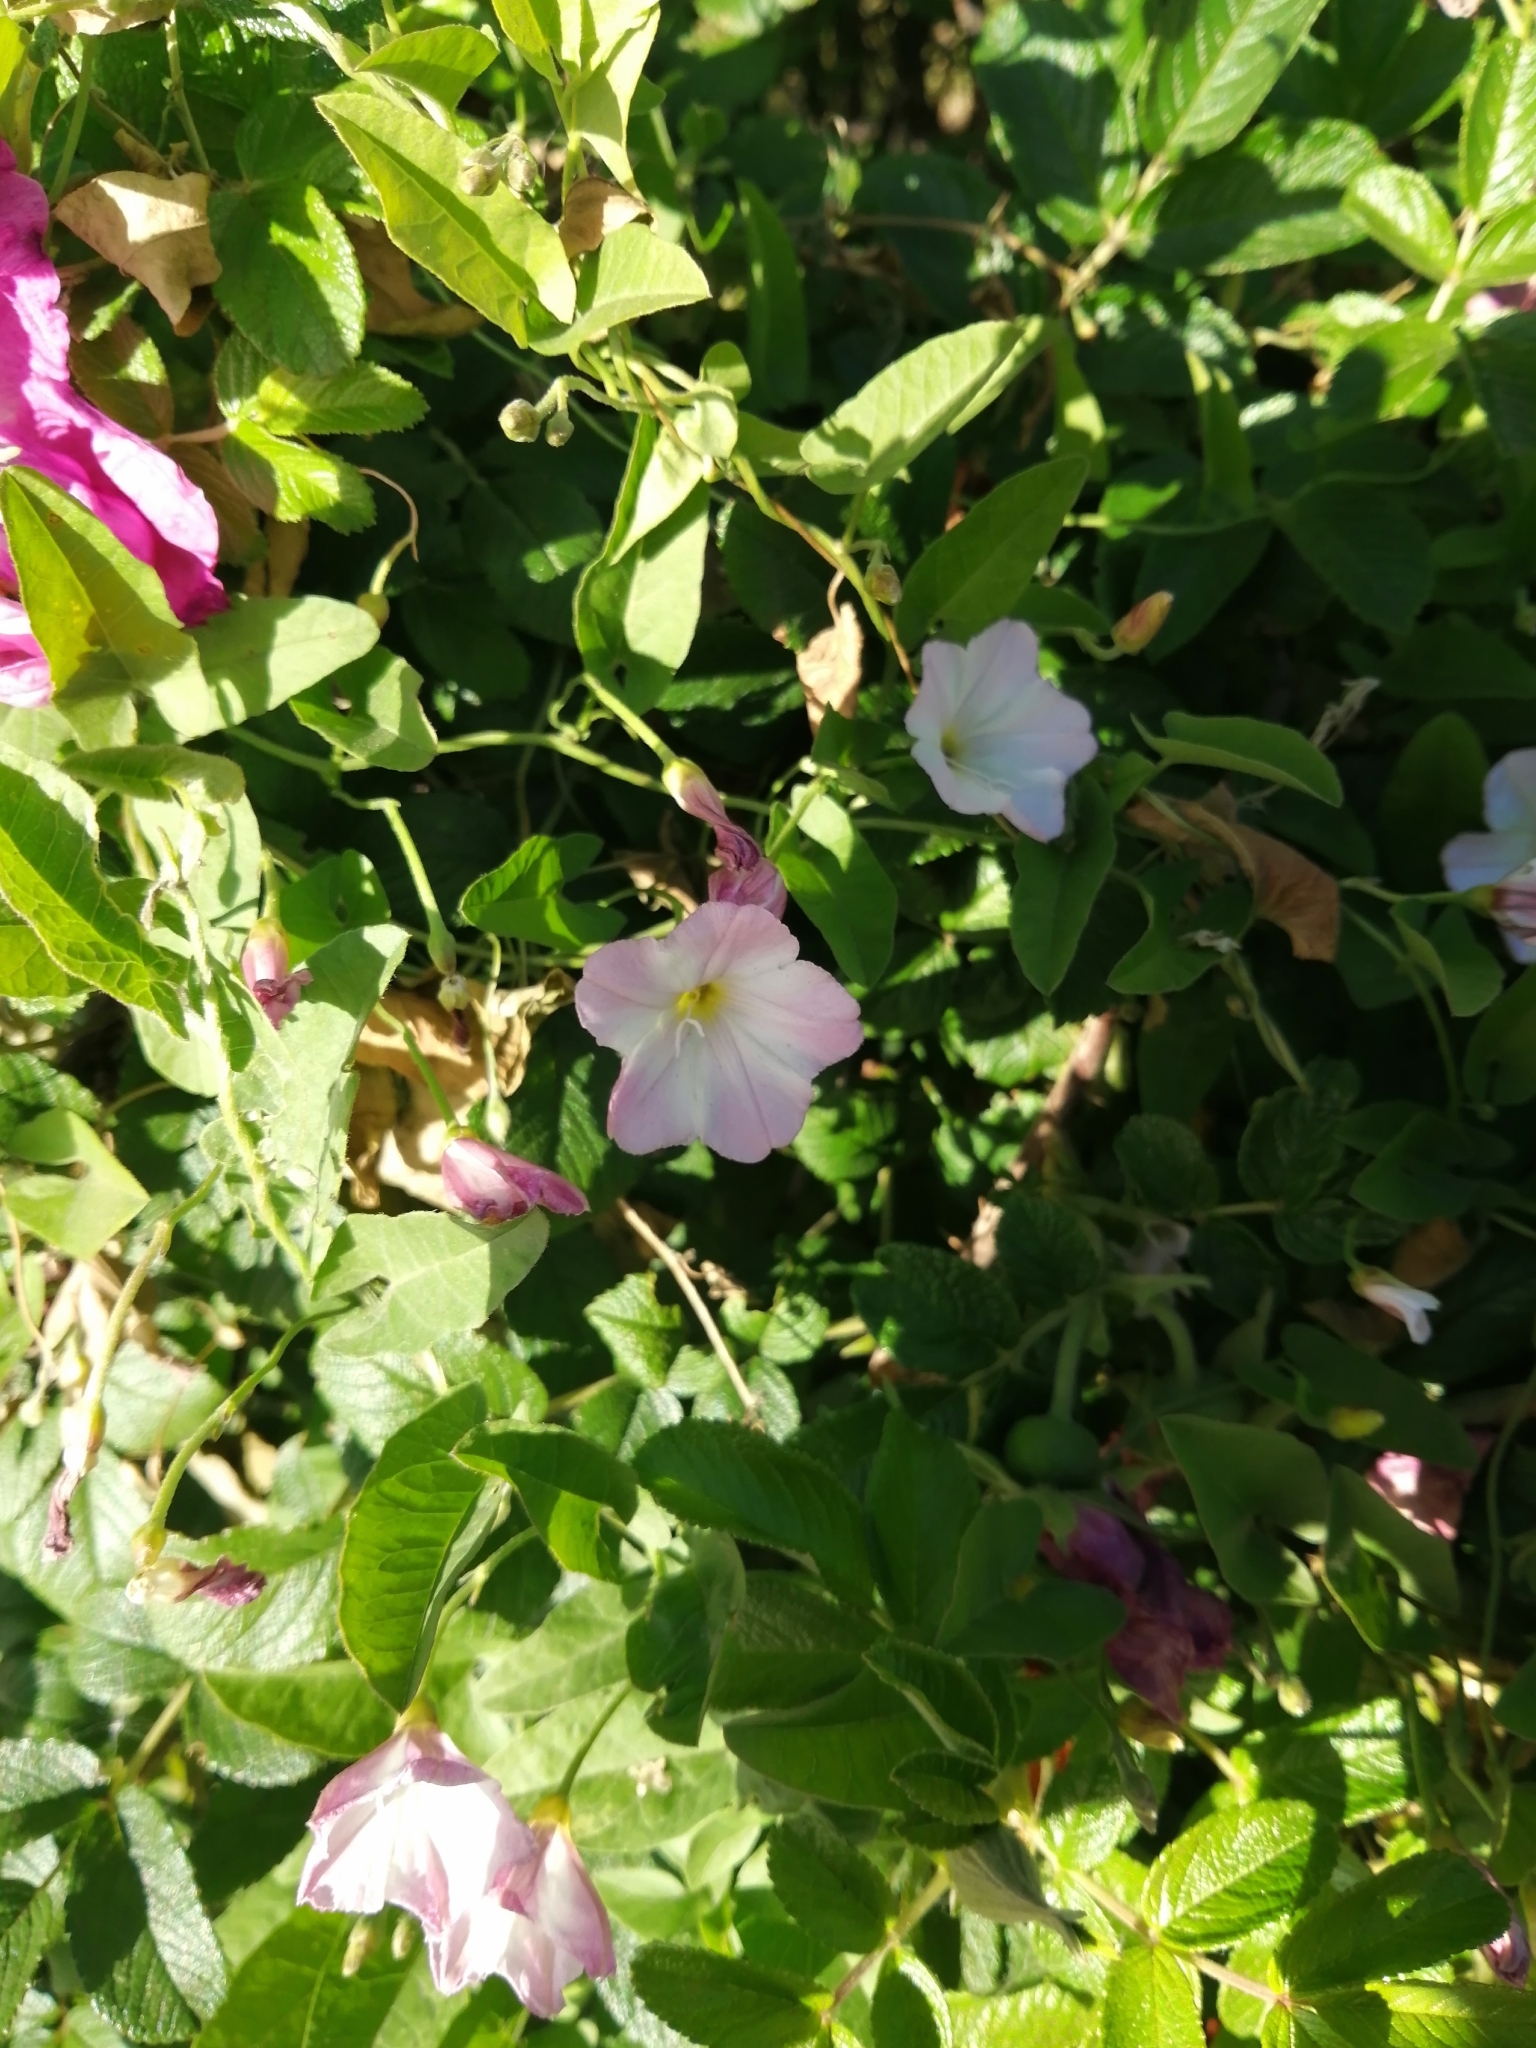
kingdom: Plantae
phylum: Tracheophyta
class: Magnoliopsida
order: Solanales
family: Convolvulaceae
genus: Convolvulus
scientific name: Convolvulus arvensis
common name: Field bindweed
